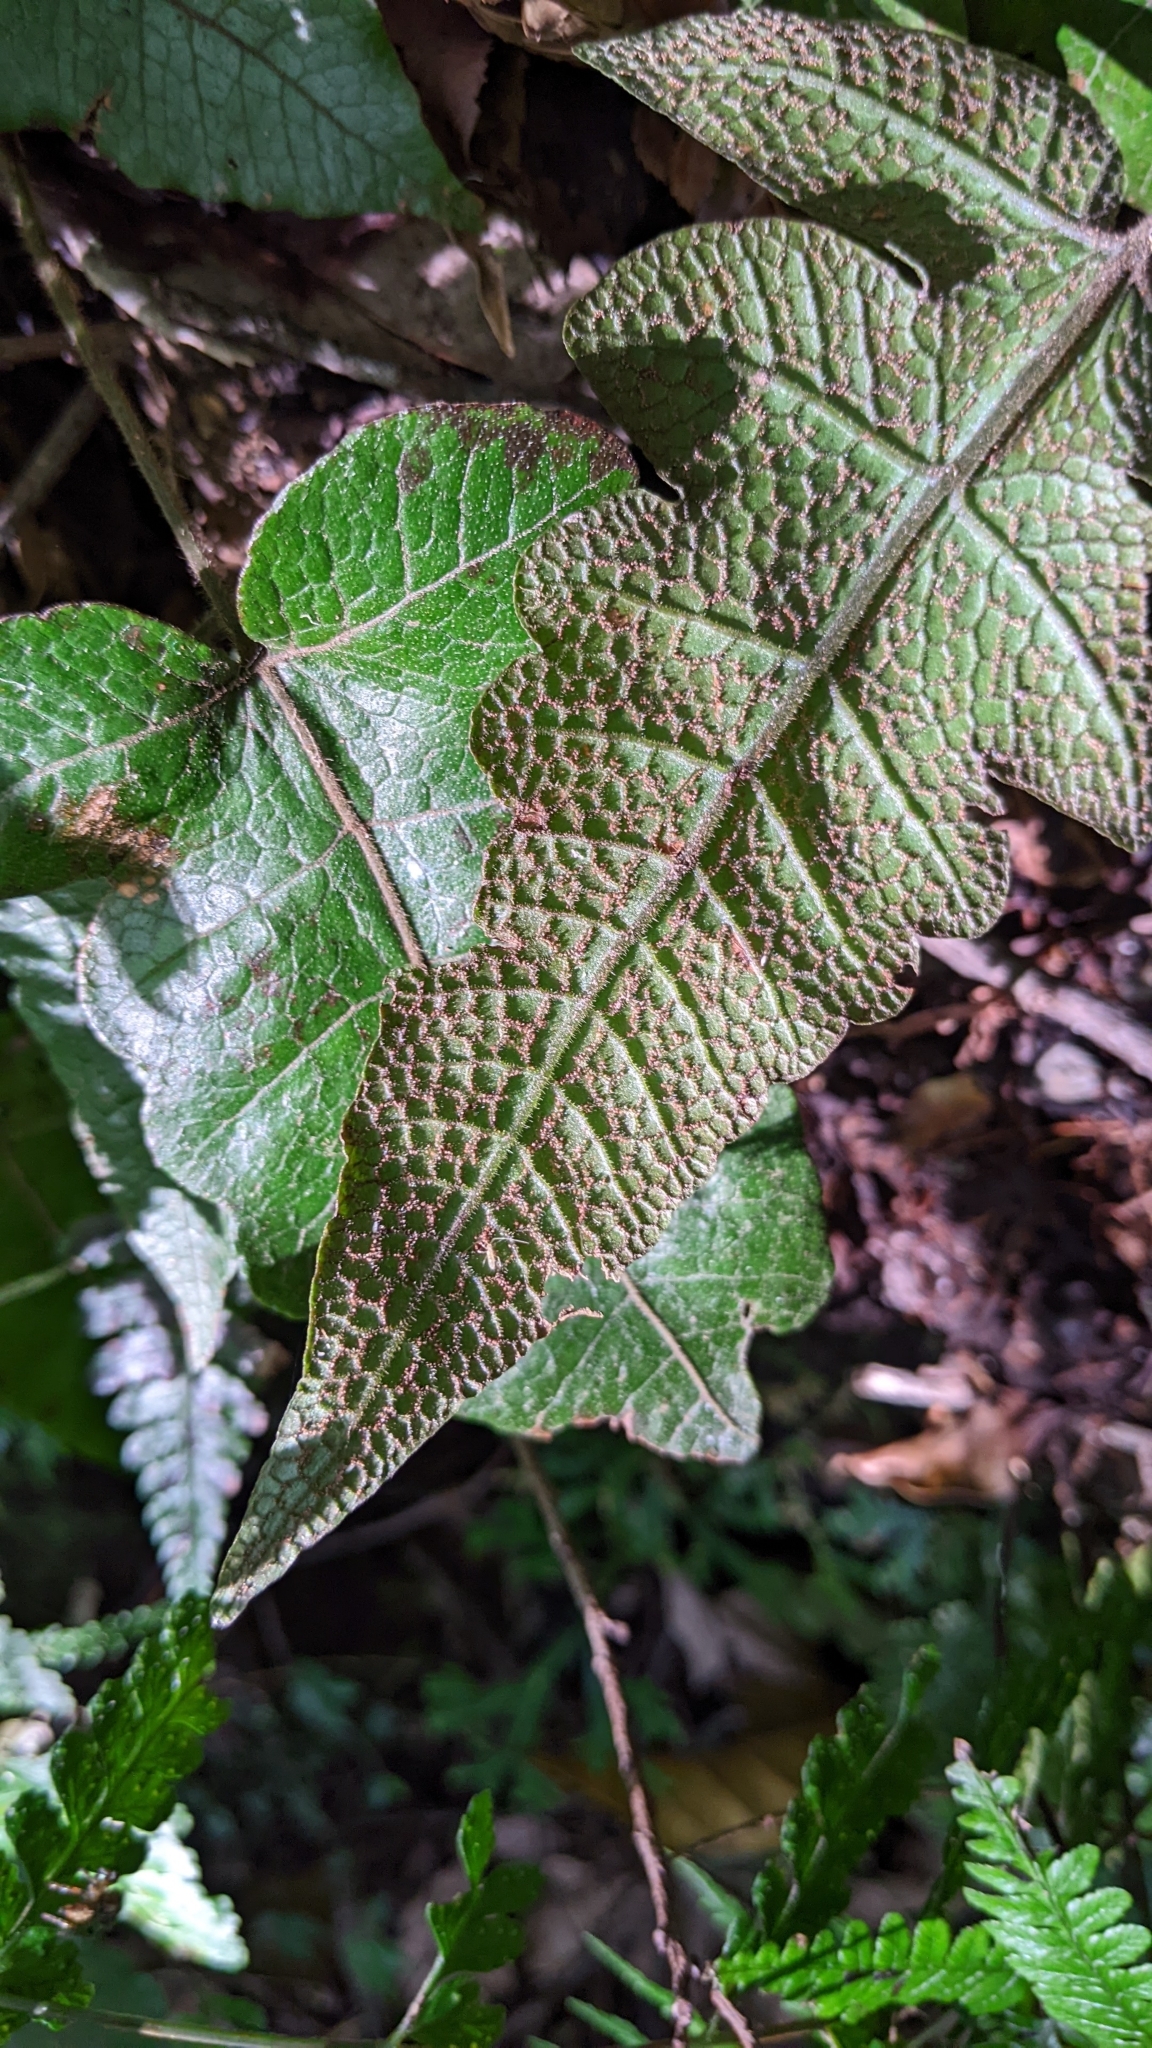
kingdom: Plantae
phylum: Tracheophyta
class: Polypodiopsida
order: Polypodiales
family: Thelypteridaceae
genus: Stegnogramma
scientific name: Stegnogramma wilfordii
